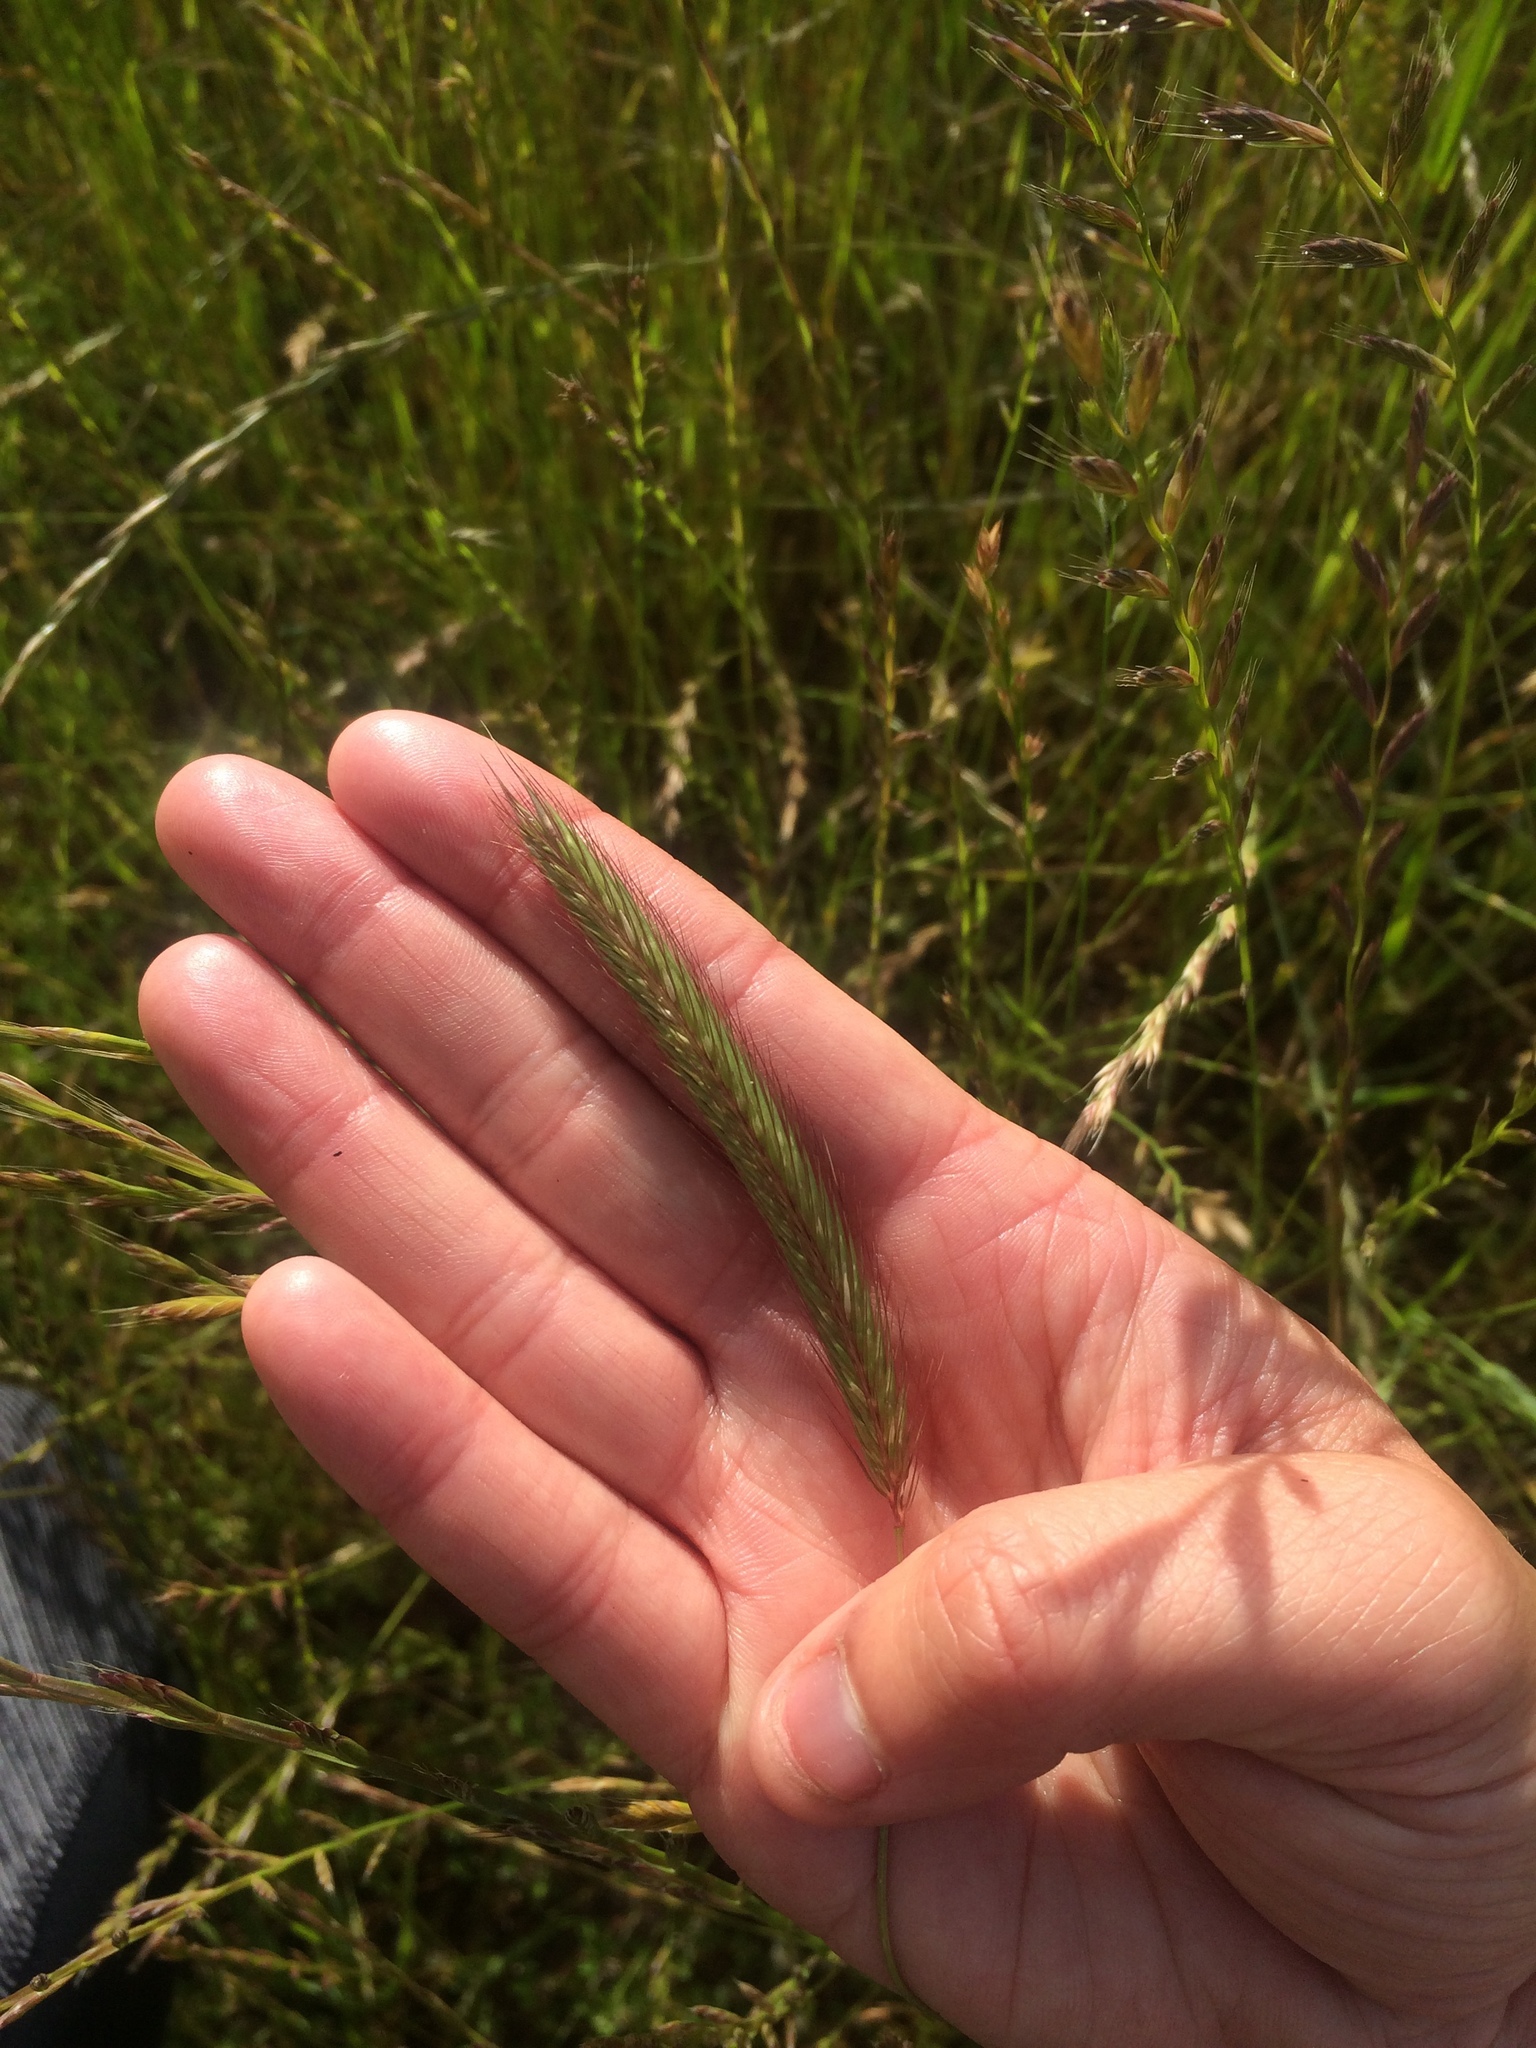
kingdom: Plantae
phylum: Tracheophyta
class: Liliopsida
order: Poales
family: Poaceae
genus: Hordeum
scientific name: Hordeum brachyantherum
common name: Meadow barley
